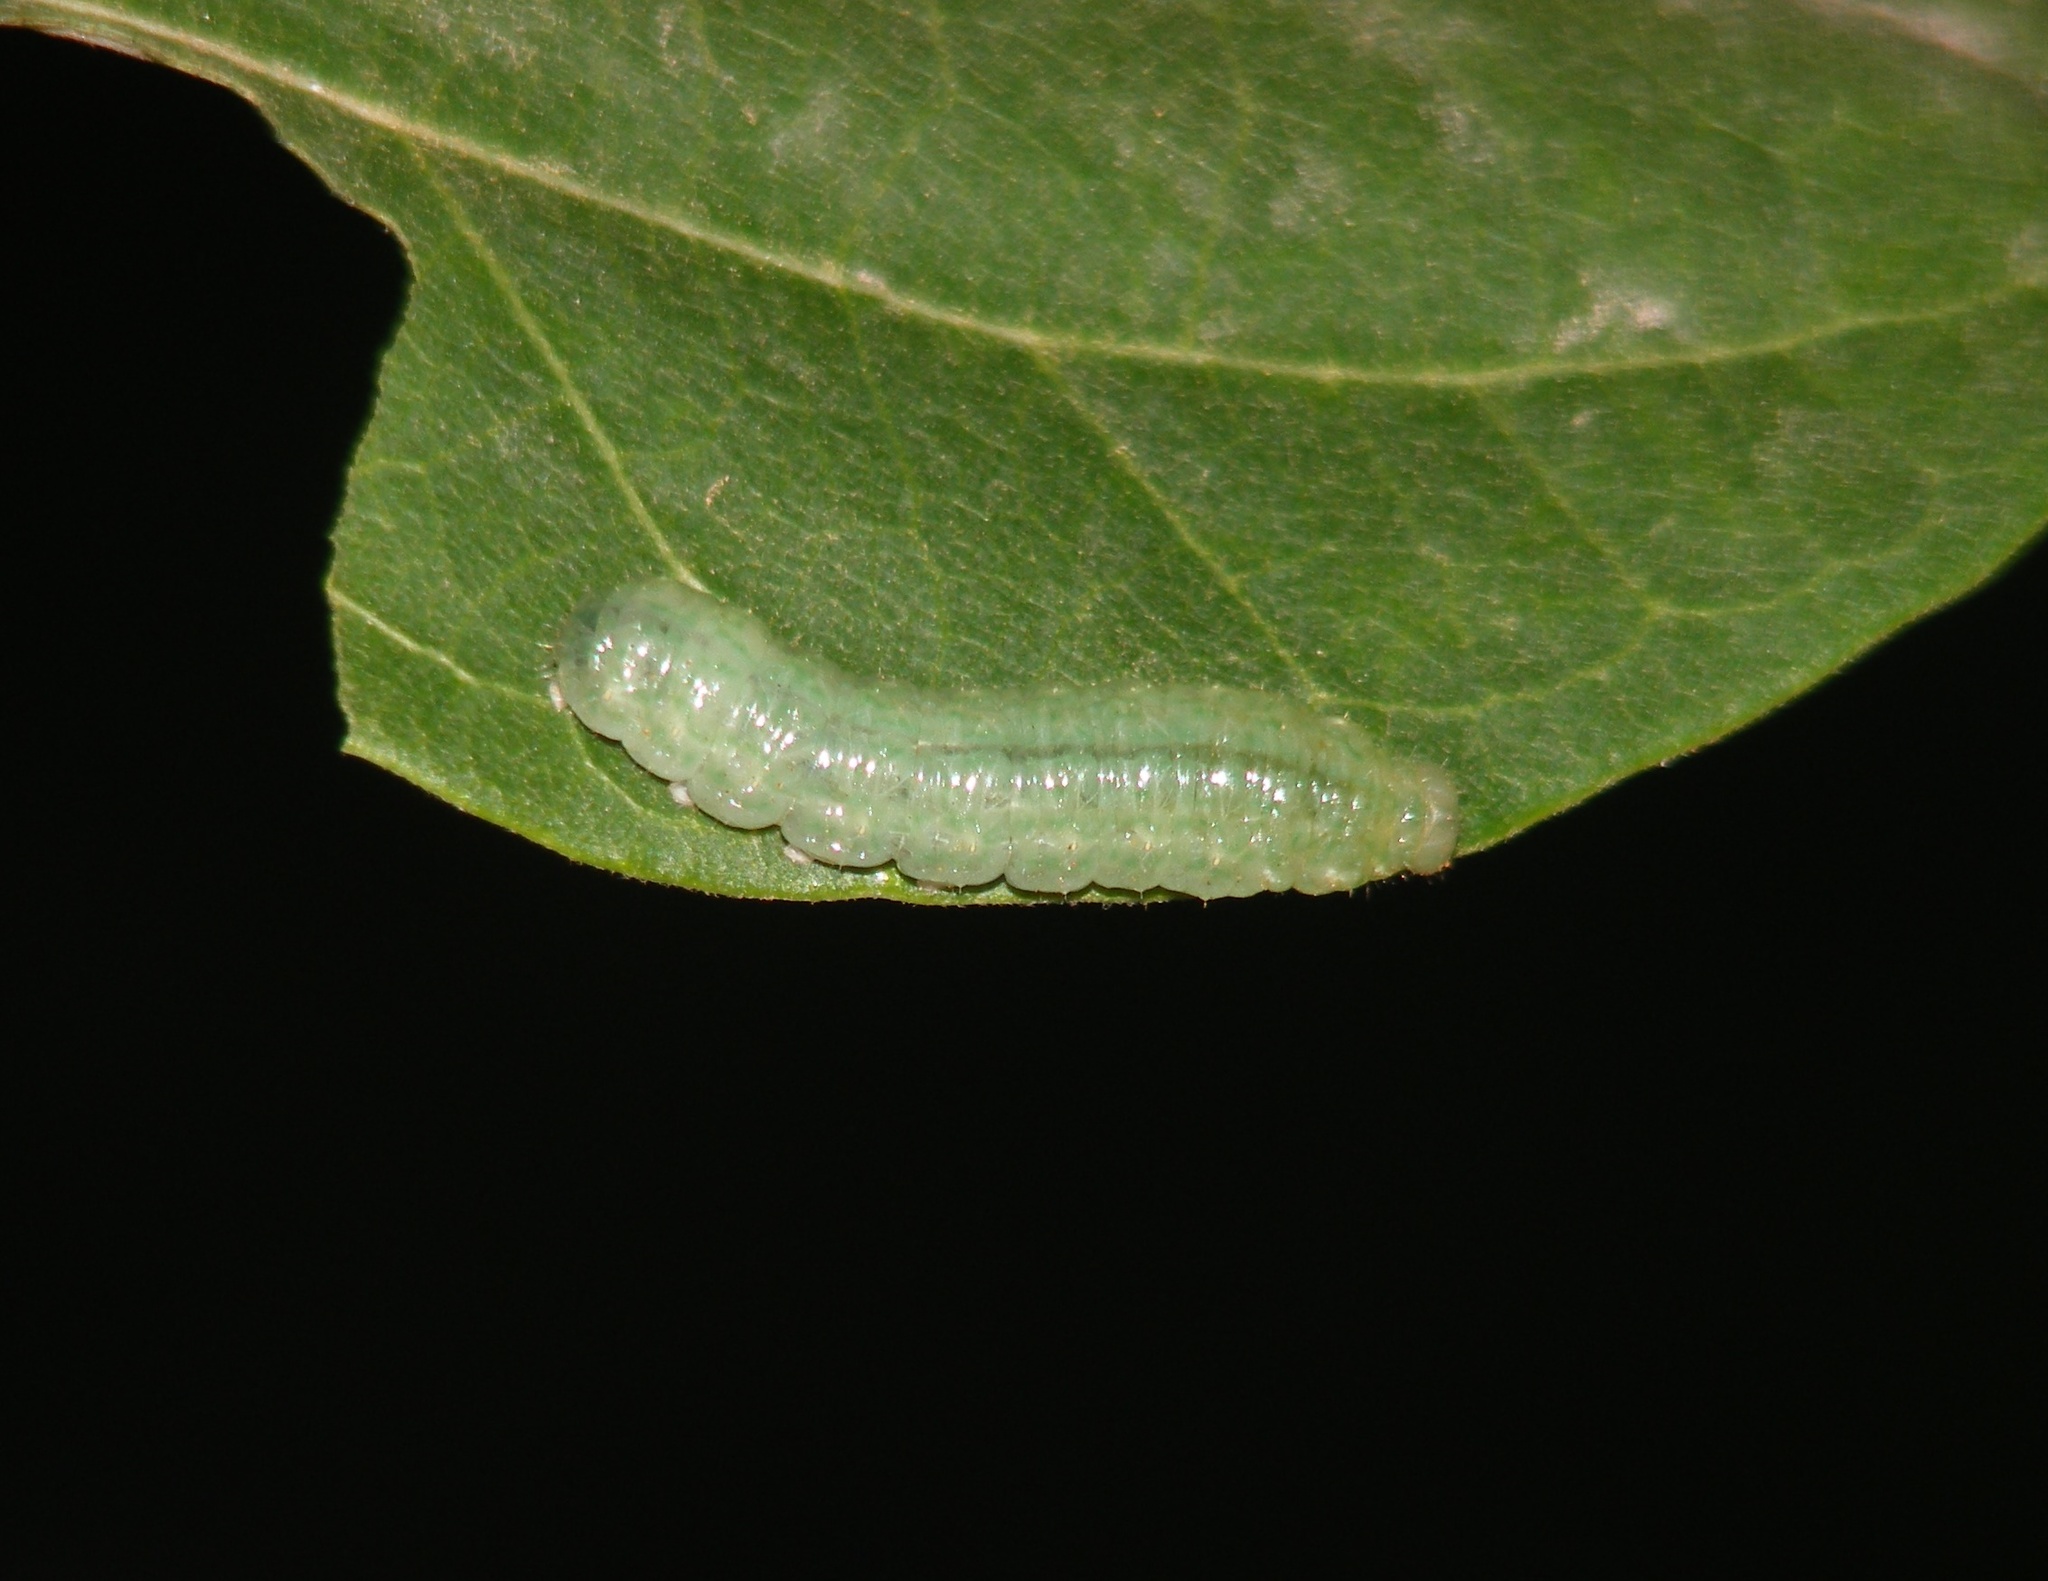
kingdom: Animalia
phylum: Arthropoda
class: Insecta
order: Lepidoptera
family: Uraniidae
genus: Micronia
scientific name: Micronia aculeata
